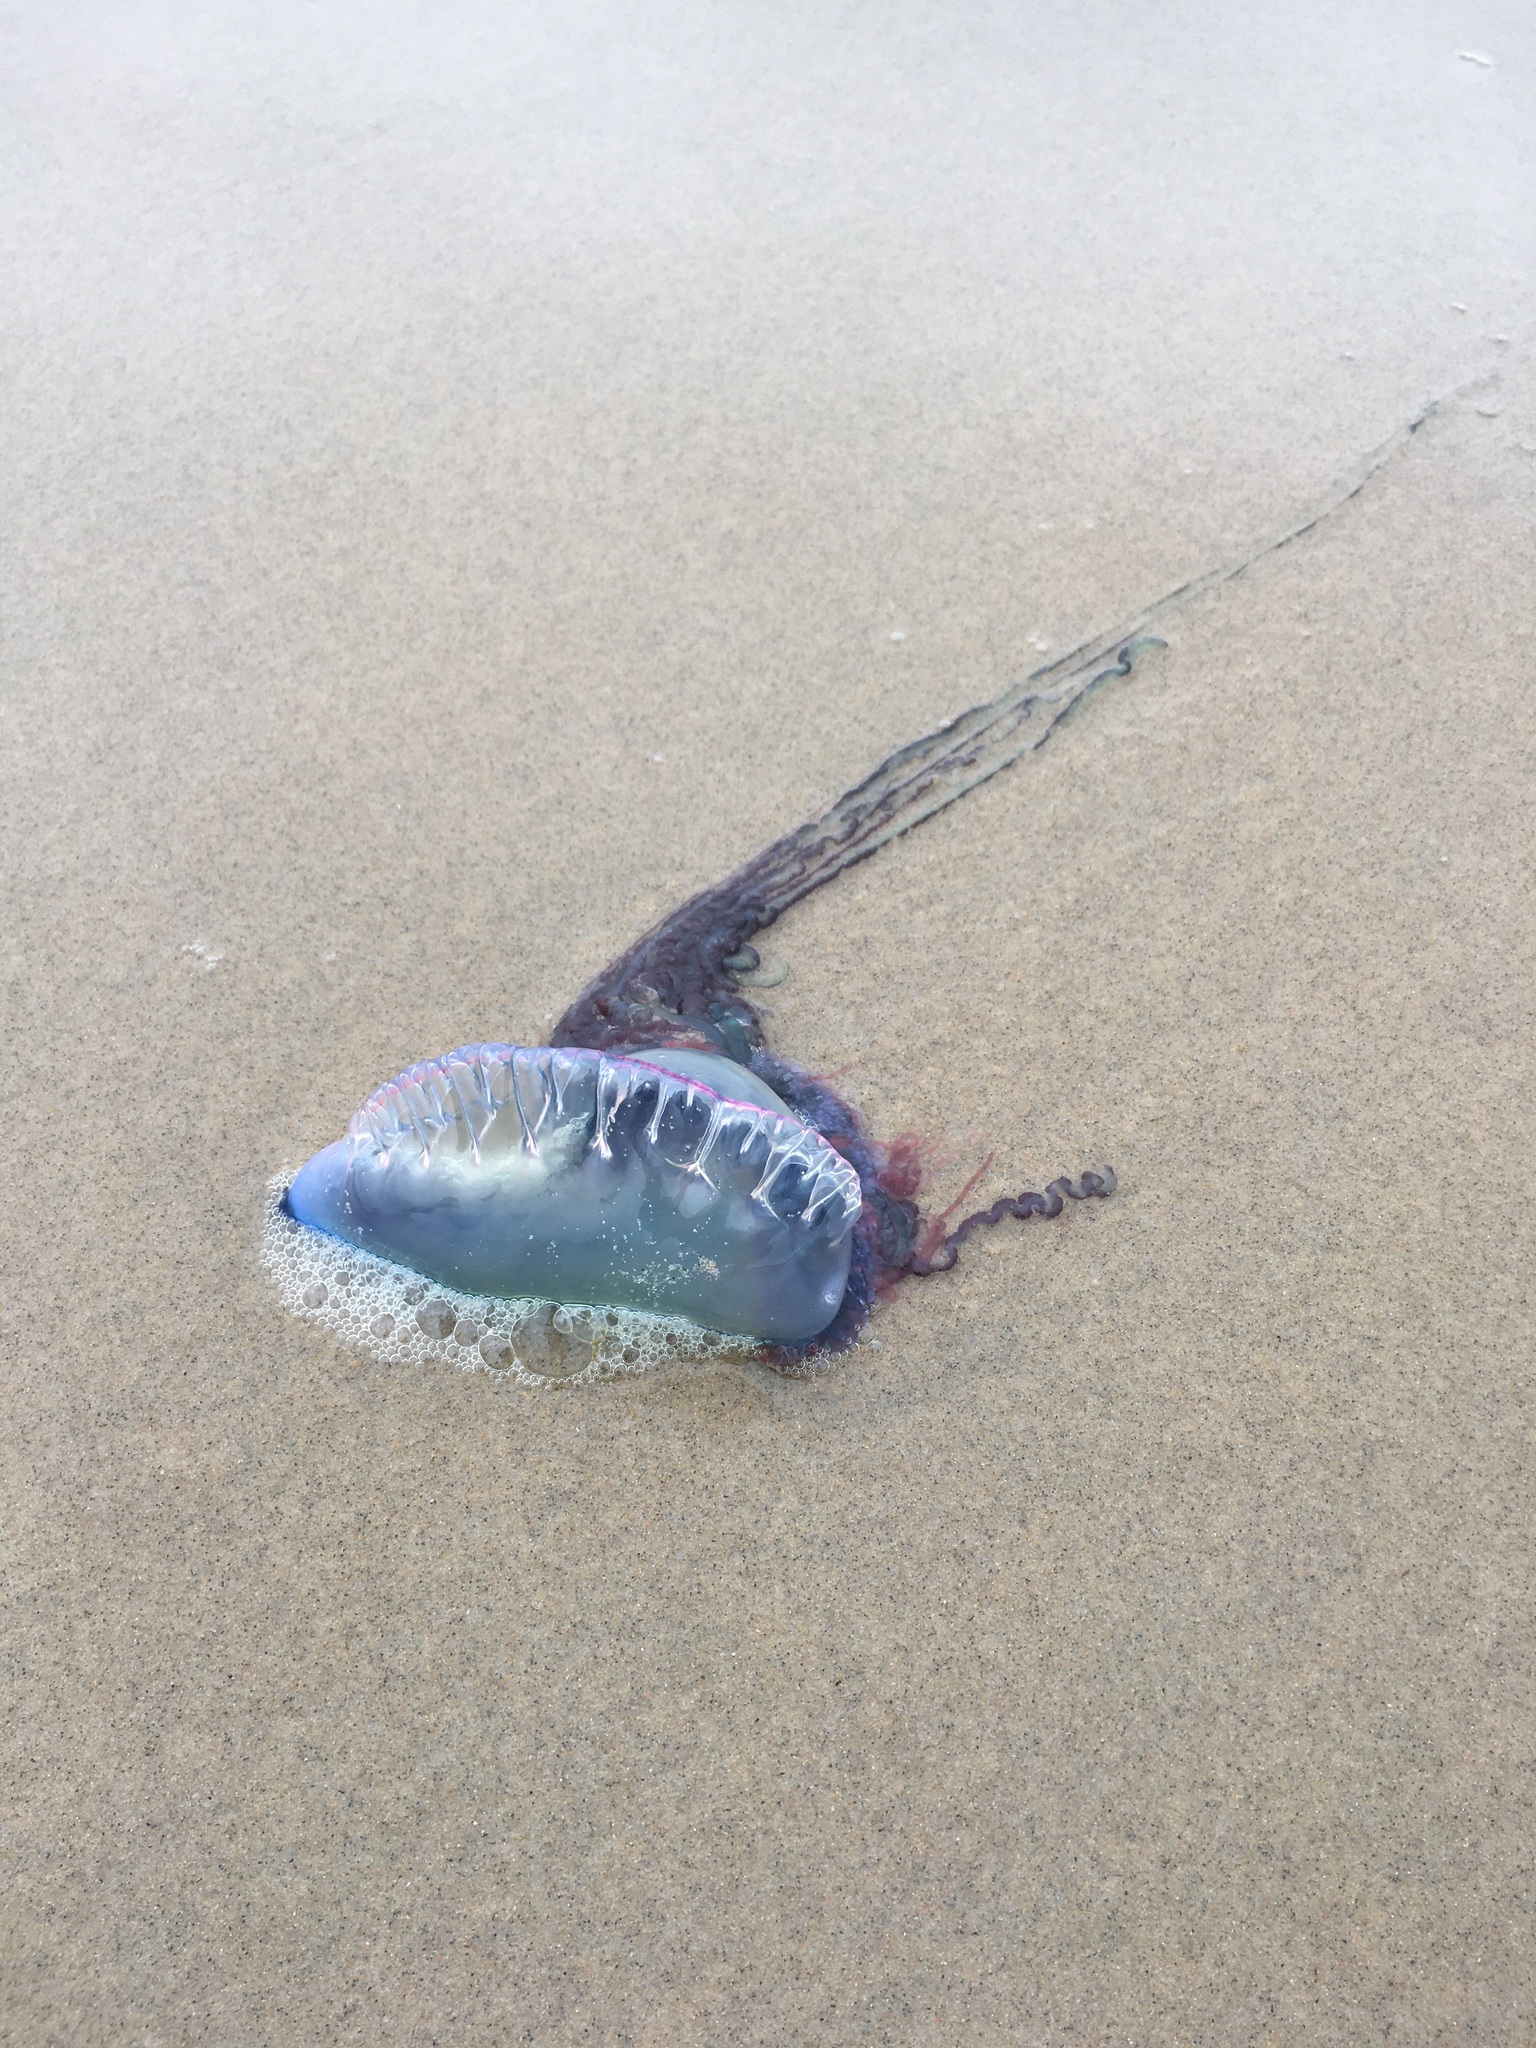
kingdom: Animalia
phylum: Cnidaria
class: Hydrozoa
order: Siphonophorae
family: Physaliidae
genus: Physalia
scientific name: Physalia physalis
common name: Portuguese man-of-war
